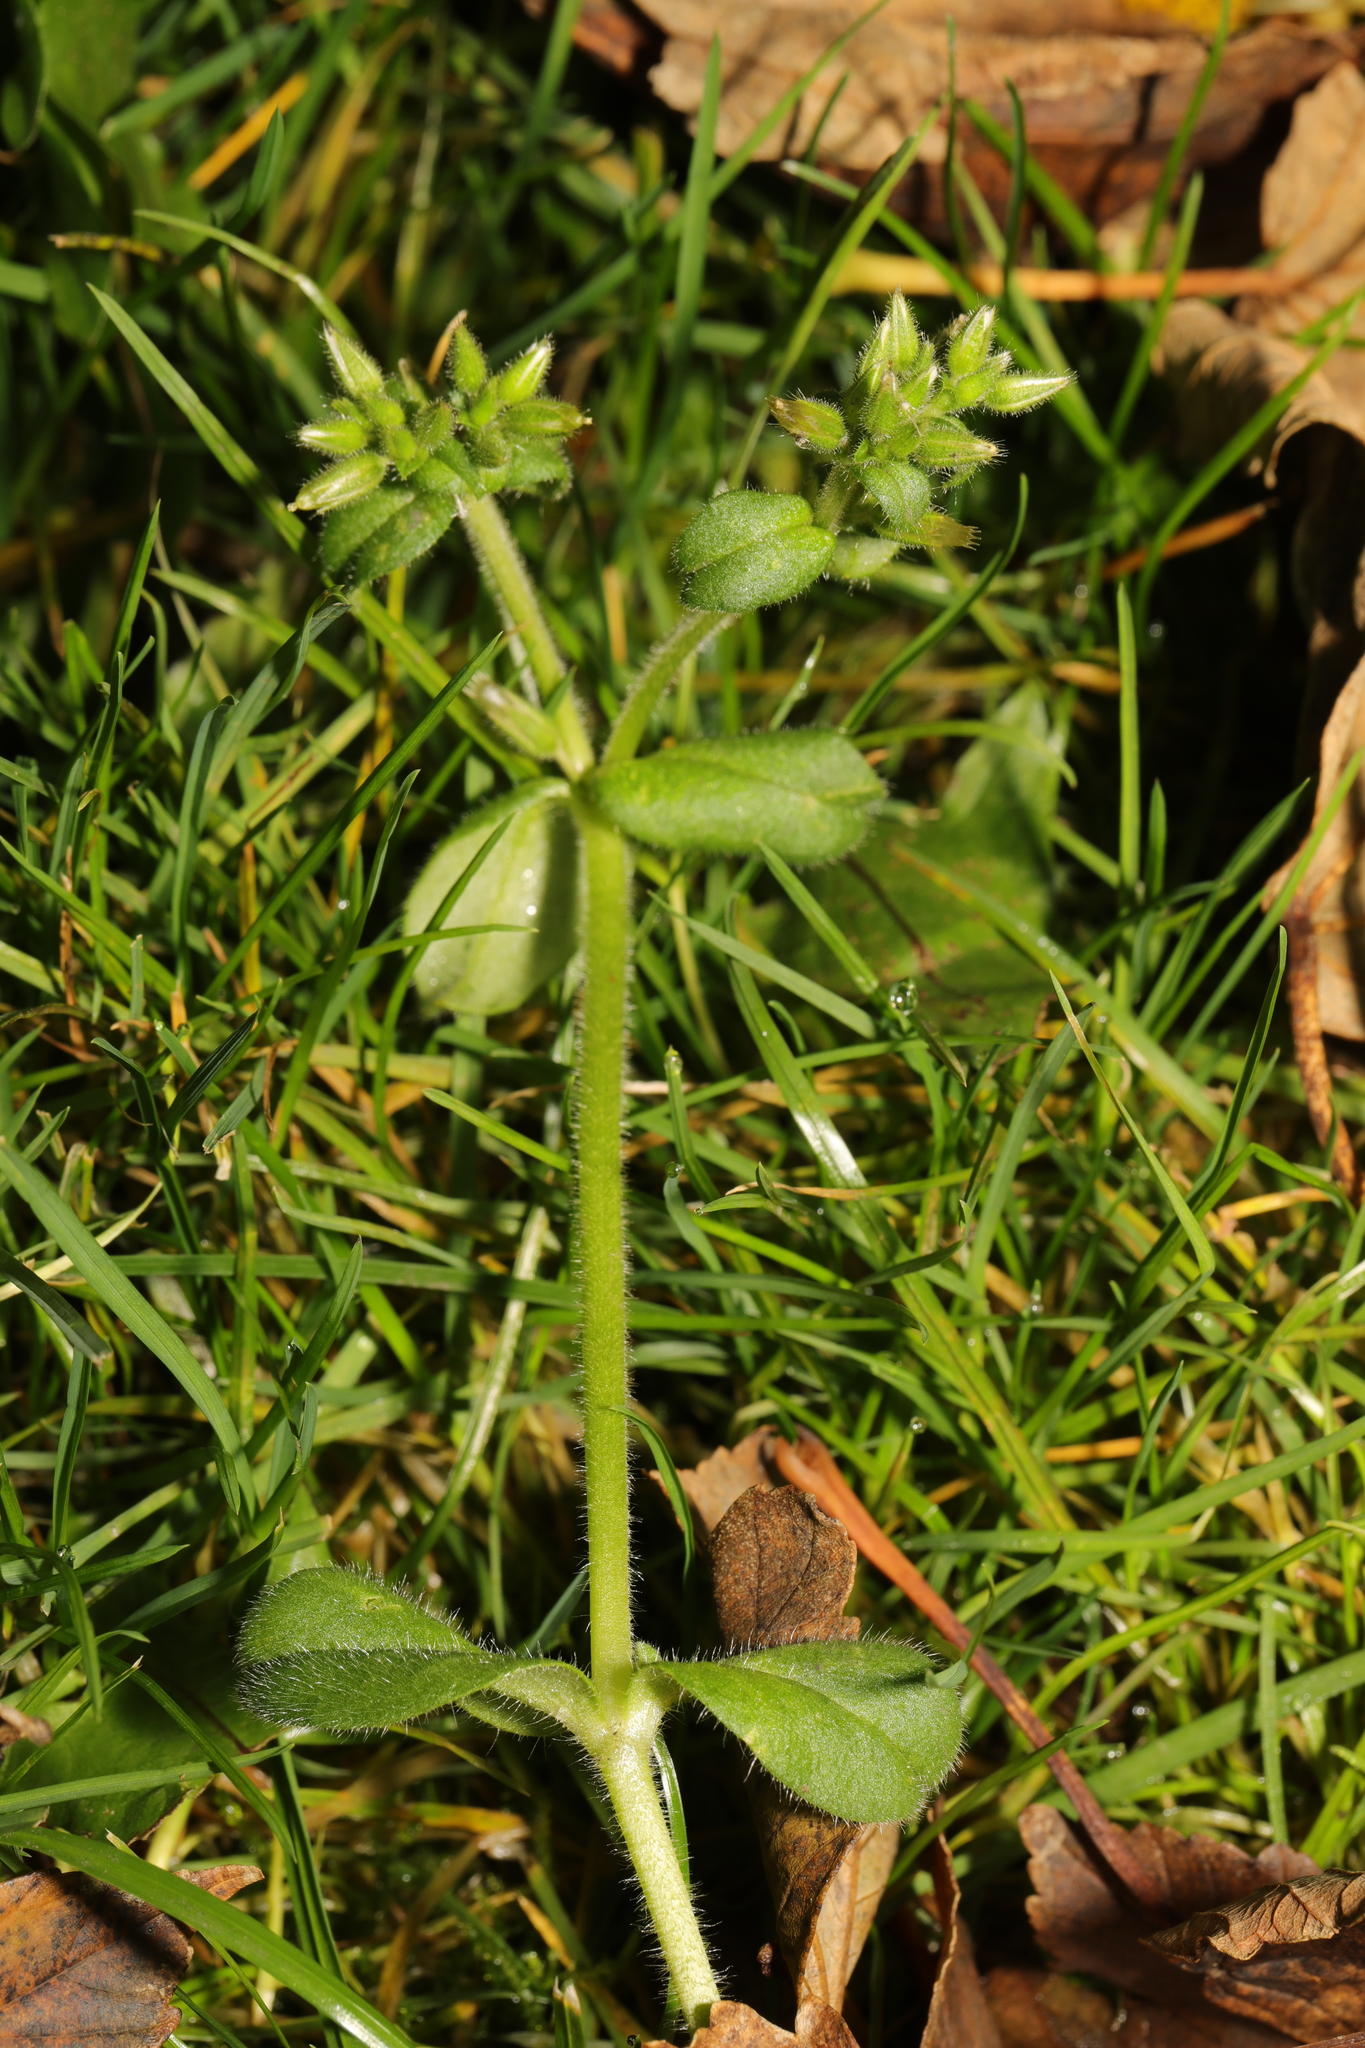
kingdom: Plantae
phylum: Tracheophyta
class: Magnoliopsida
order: Caryophyllales
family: Caryophyllaceae
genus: Cerastium
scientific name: Cerastium glomeratum
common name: Sticky chickweed
